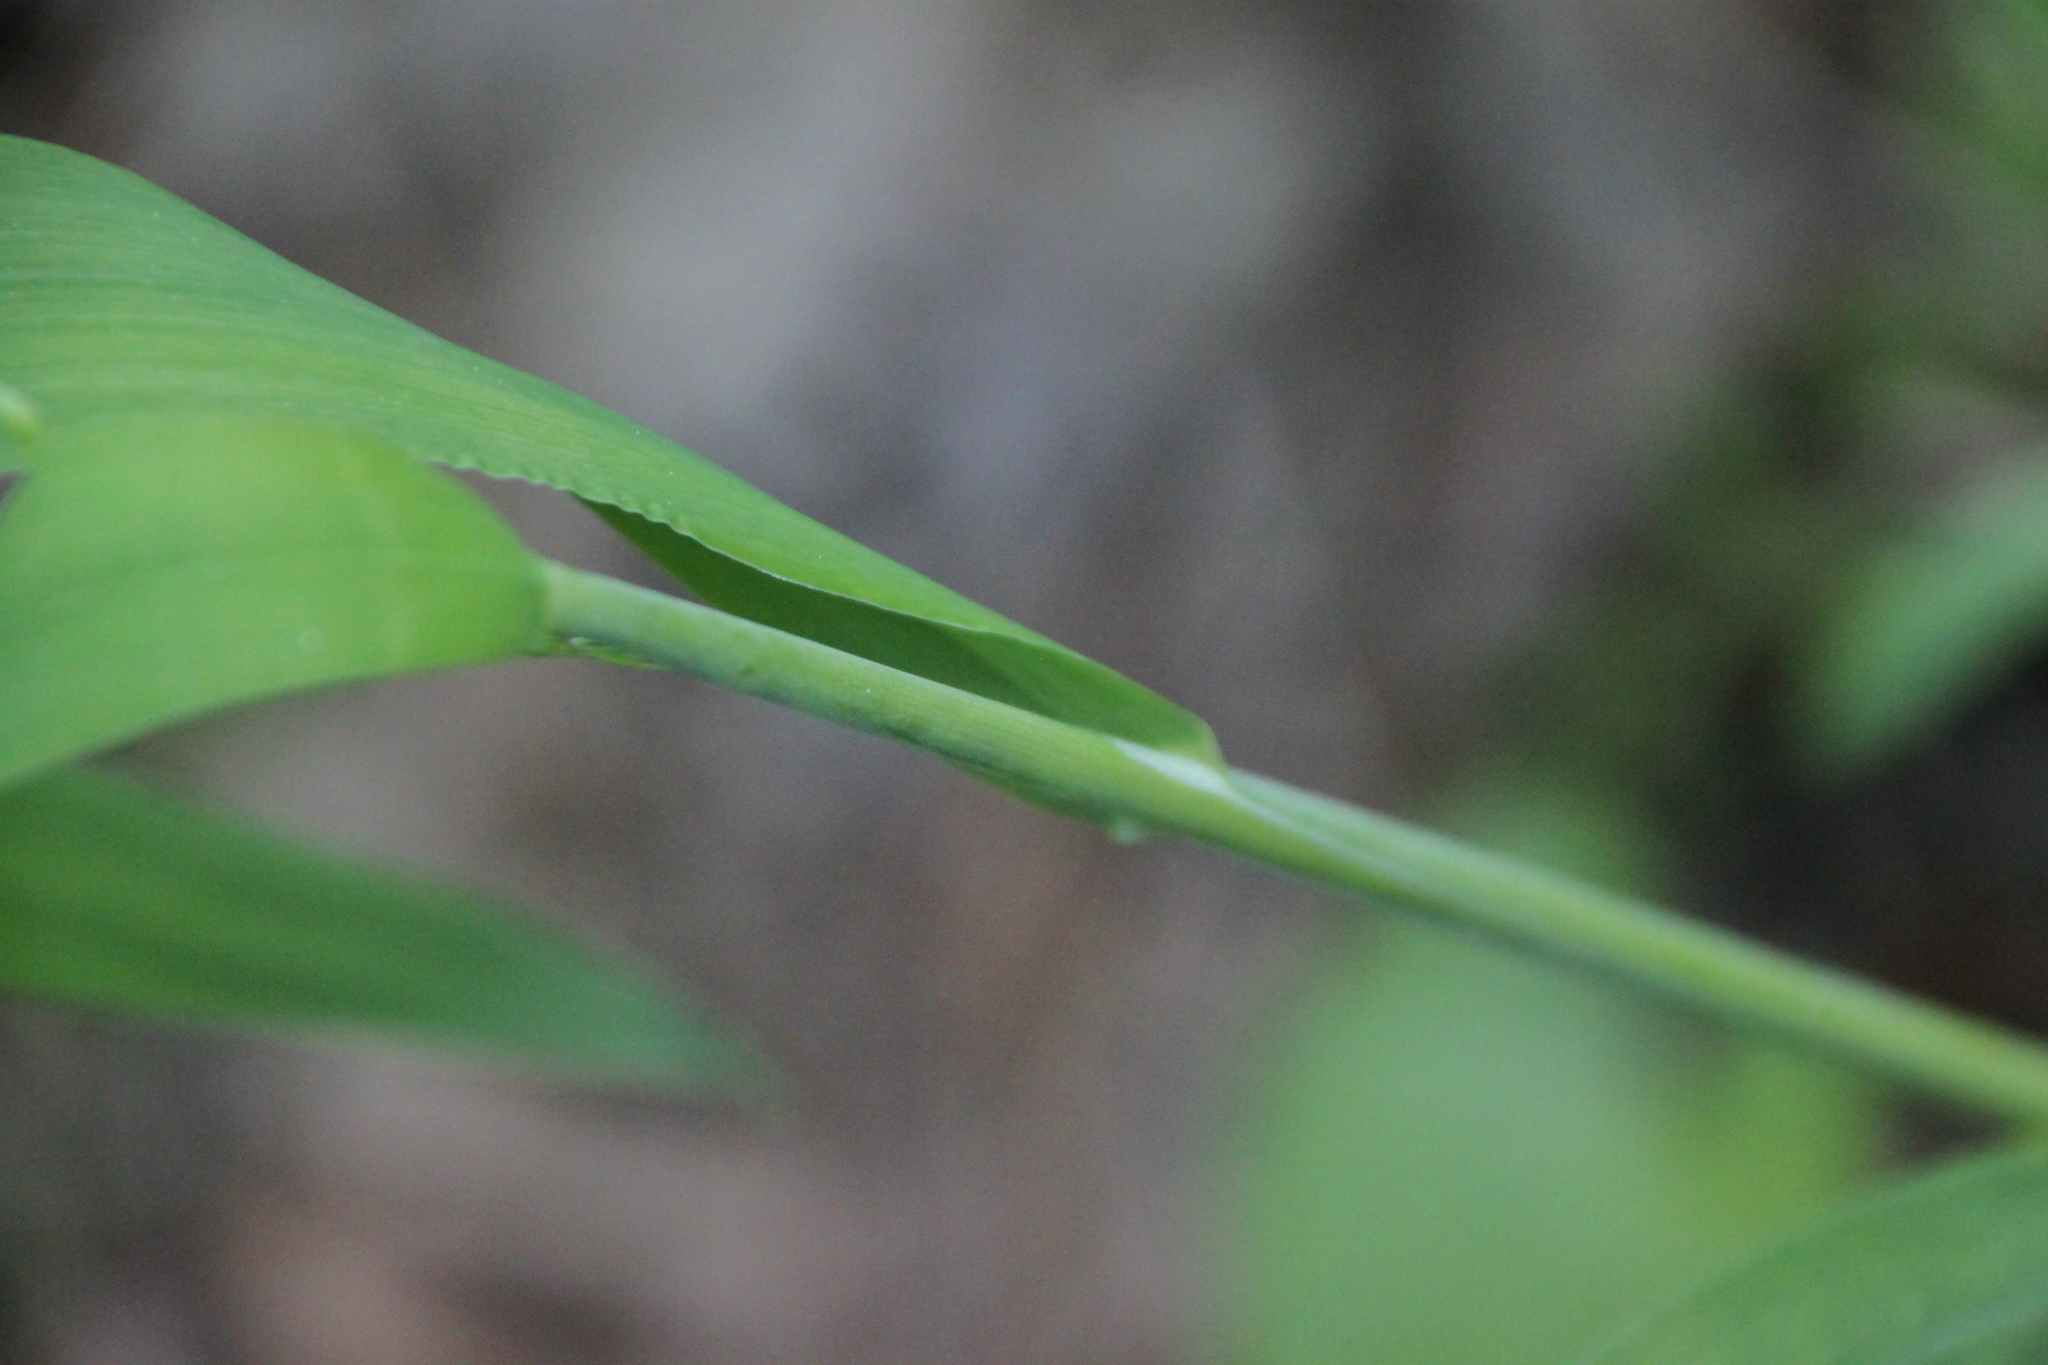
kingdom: Plantae
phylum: Tracheophyta
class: Liliopsida
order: Poales
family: Poaceae
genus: Milium
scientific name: Milium effusum
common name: Wood millet
